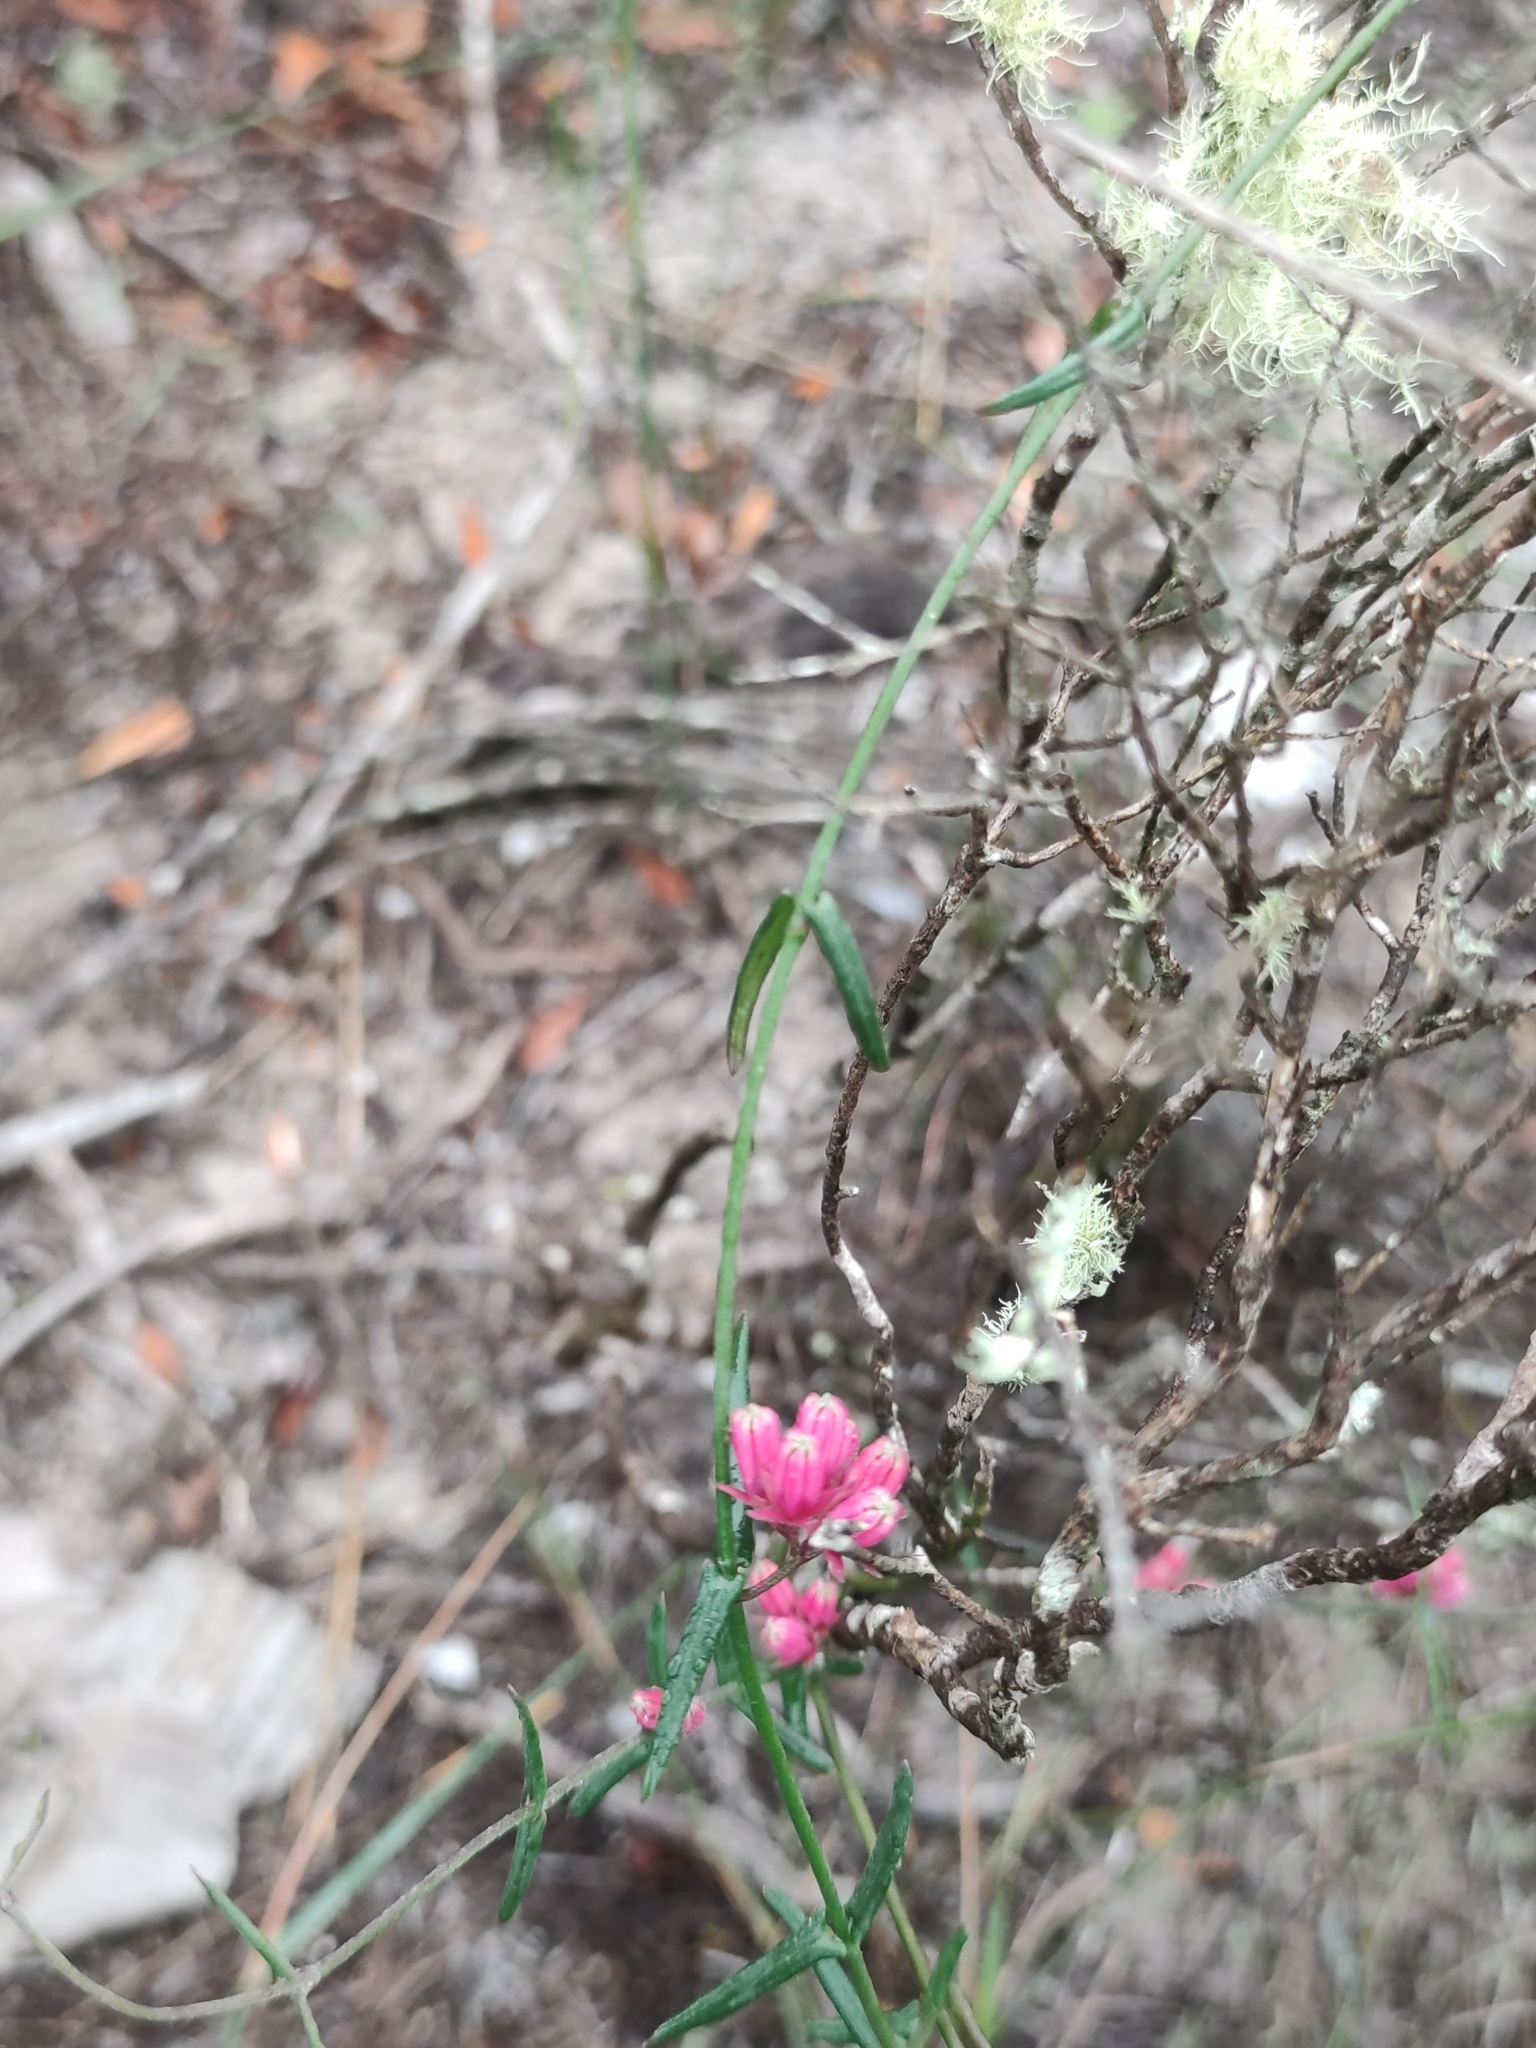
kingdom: Plantae
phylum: Tracheophyta
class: Magnoliopsida
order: Gentianales
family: Apocynaceae
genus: Microloma
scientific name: Microloma sagittatum
